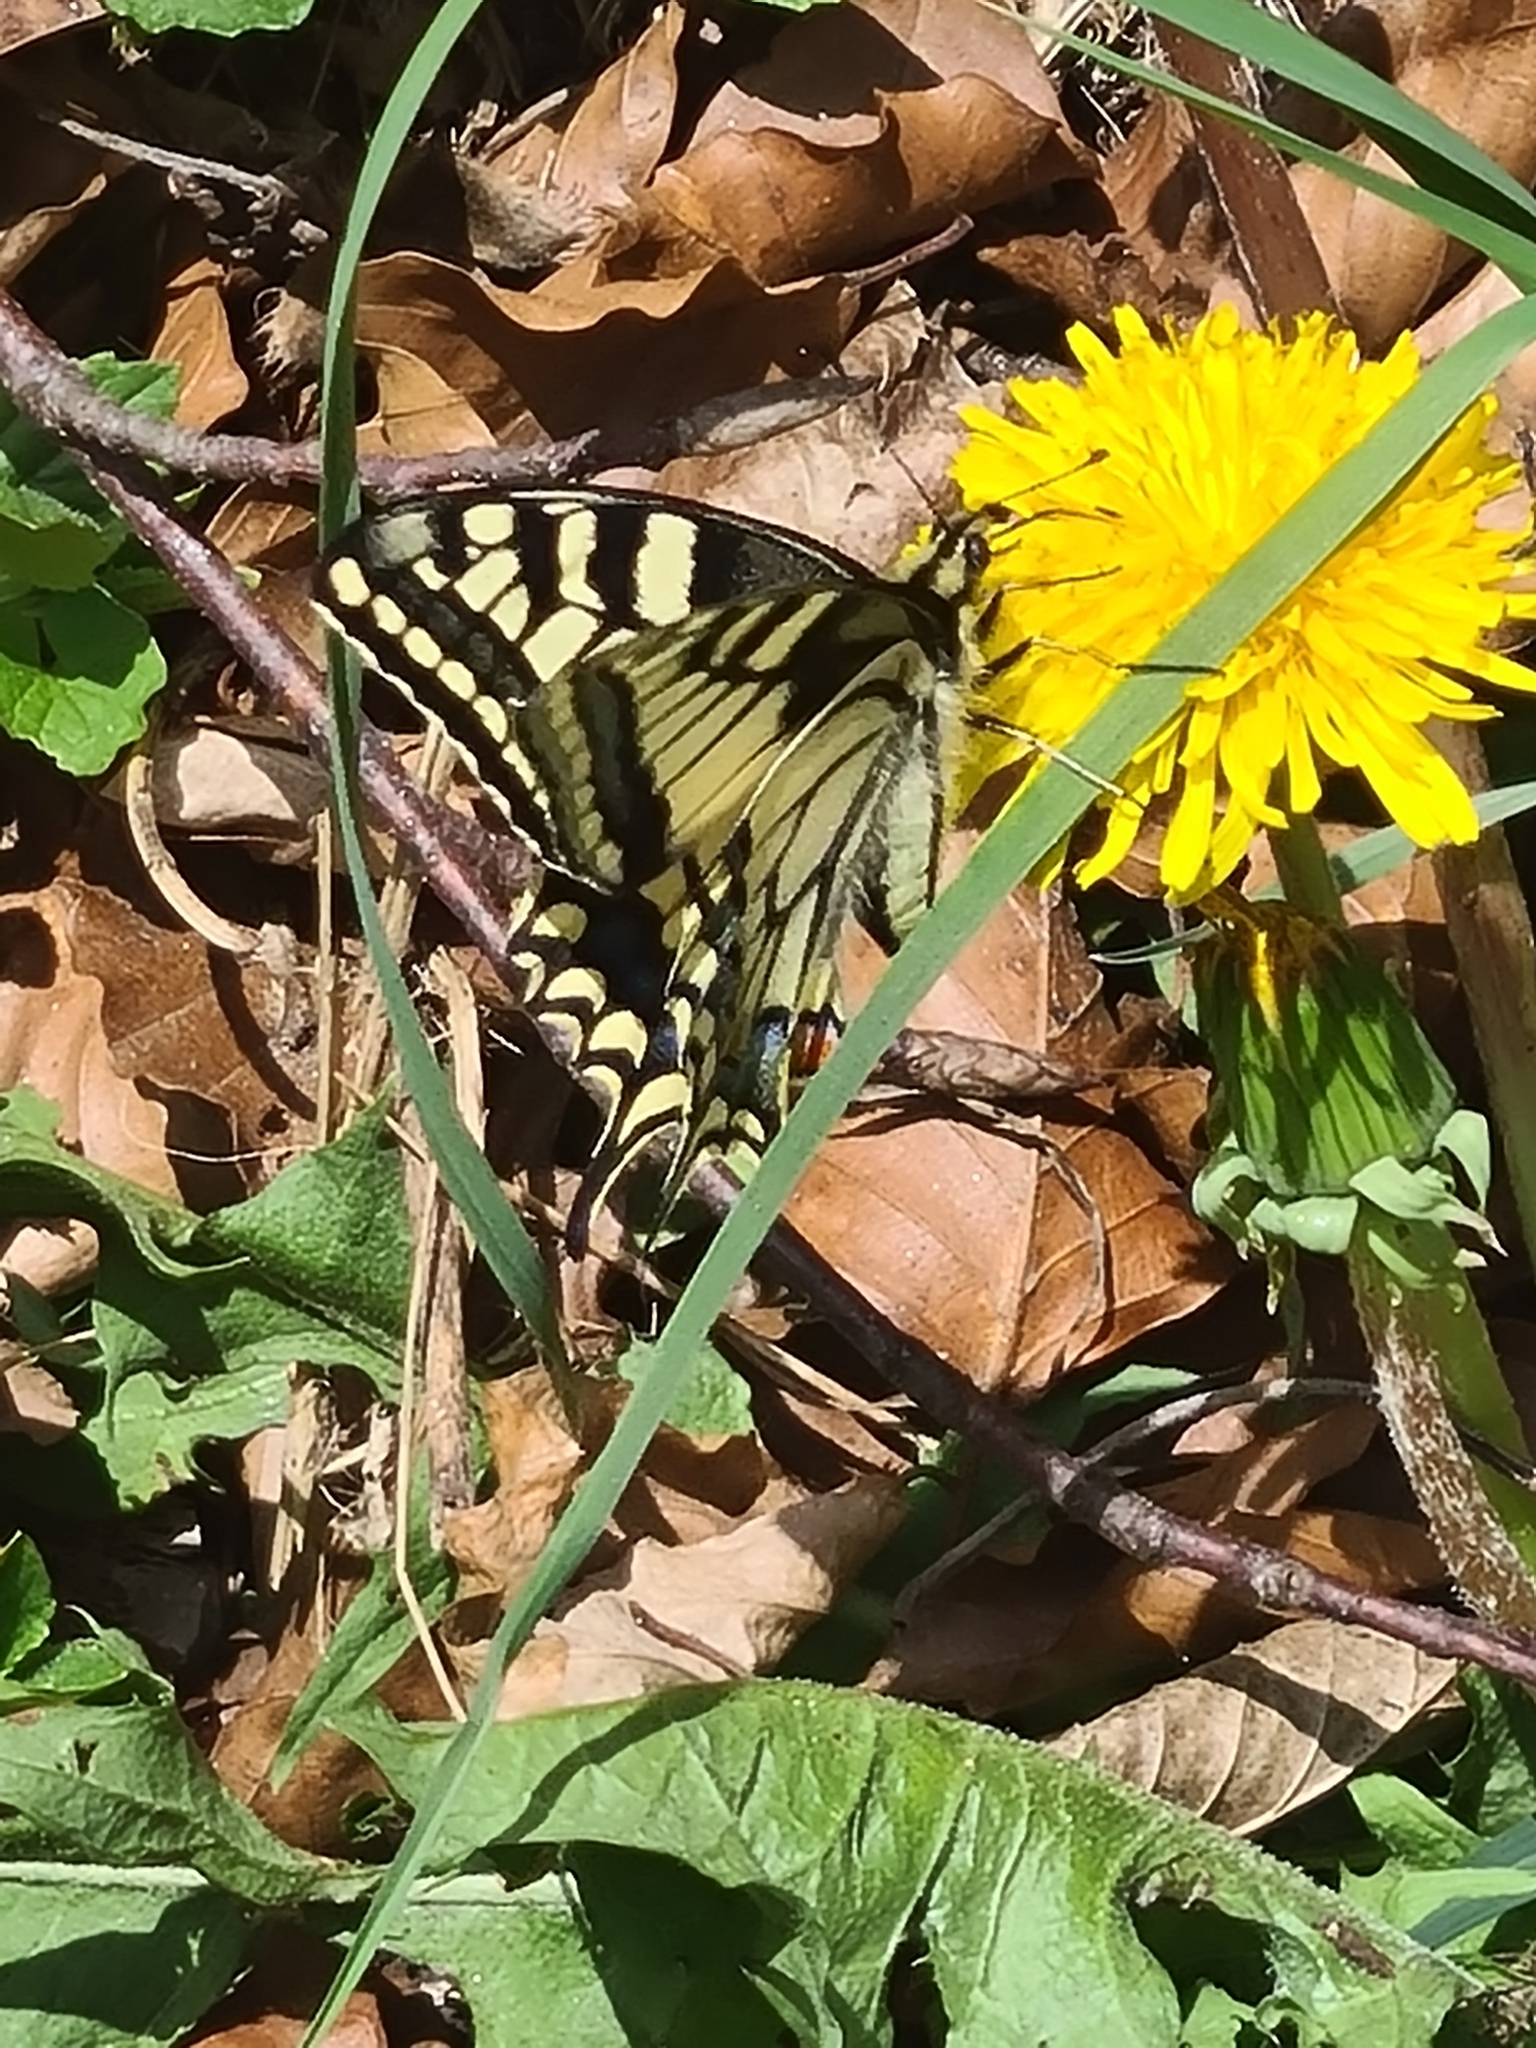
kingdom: Animalia
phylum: Arthropoda
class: Insecta
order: Lepidoptera
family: Papilionidae
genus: Papilio
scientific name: Papilio machaon
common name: Swallowtail
